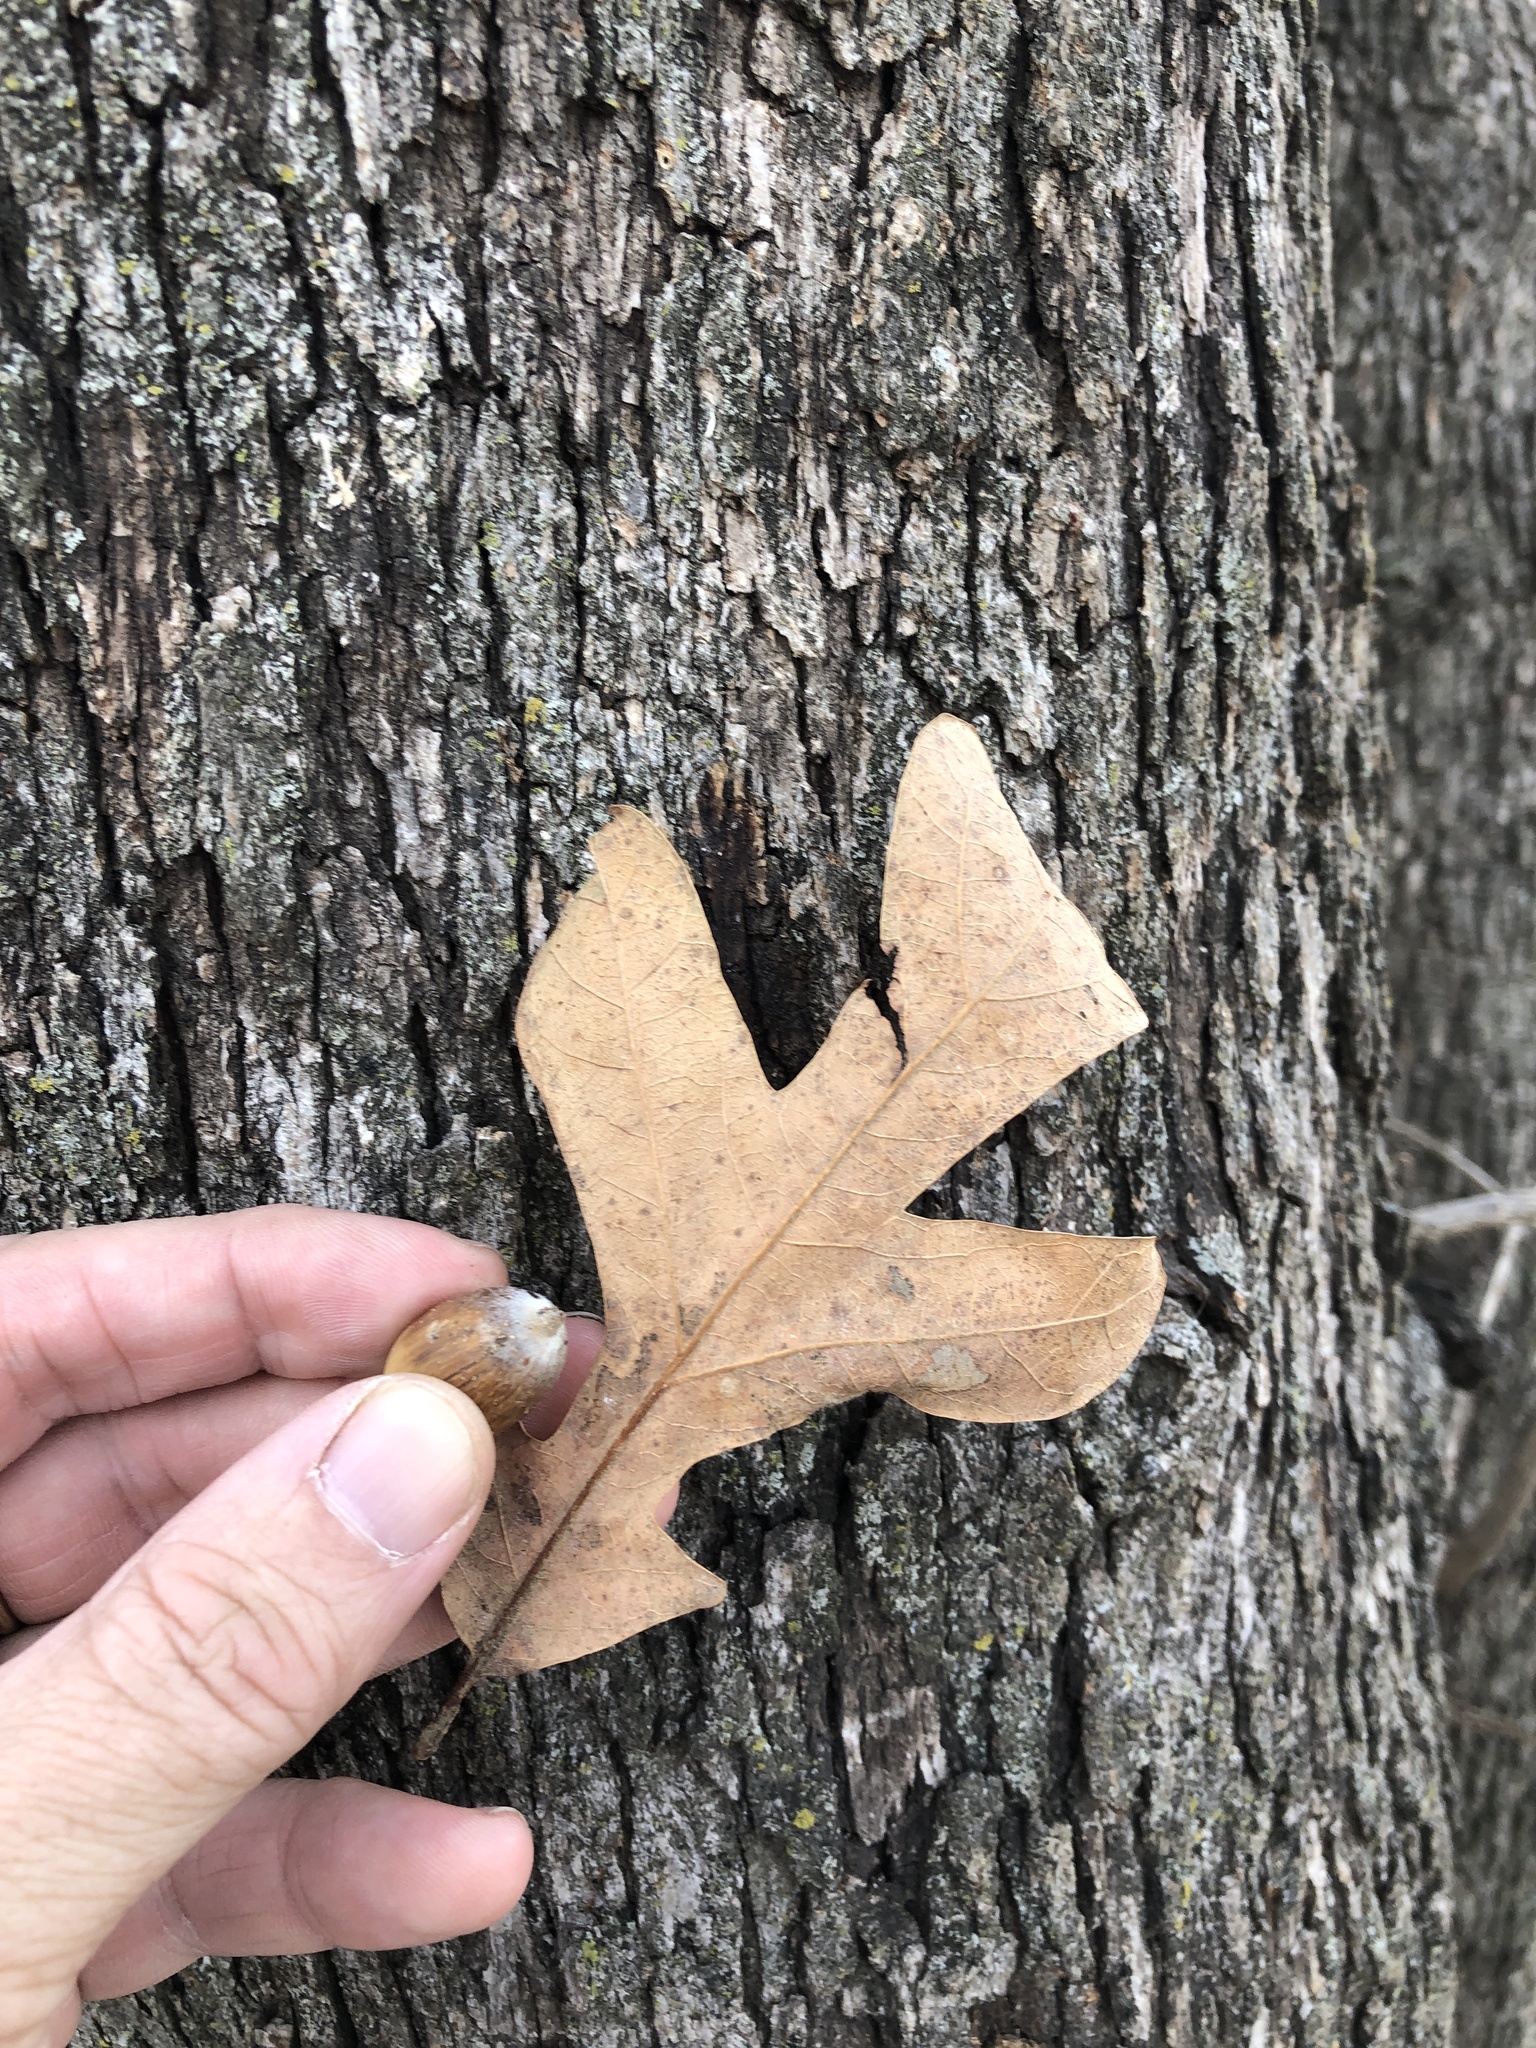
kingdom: Plantae
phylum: Tracheophyta
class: Magnoliopsida
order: Fagales
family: Fagaceae
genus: Quercus
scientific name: Quercus stellata
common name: Post oak
